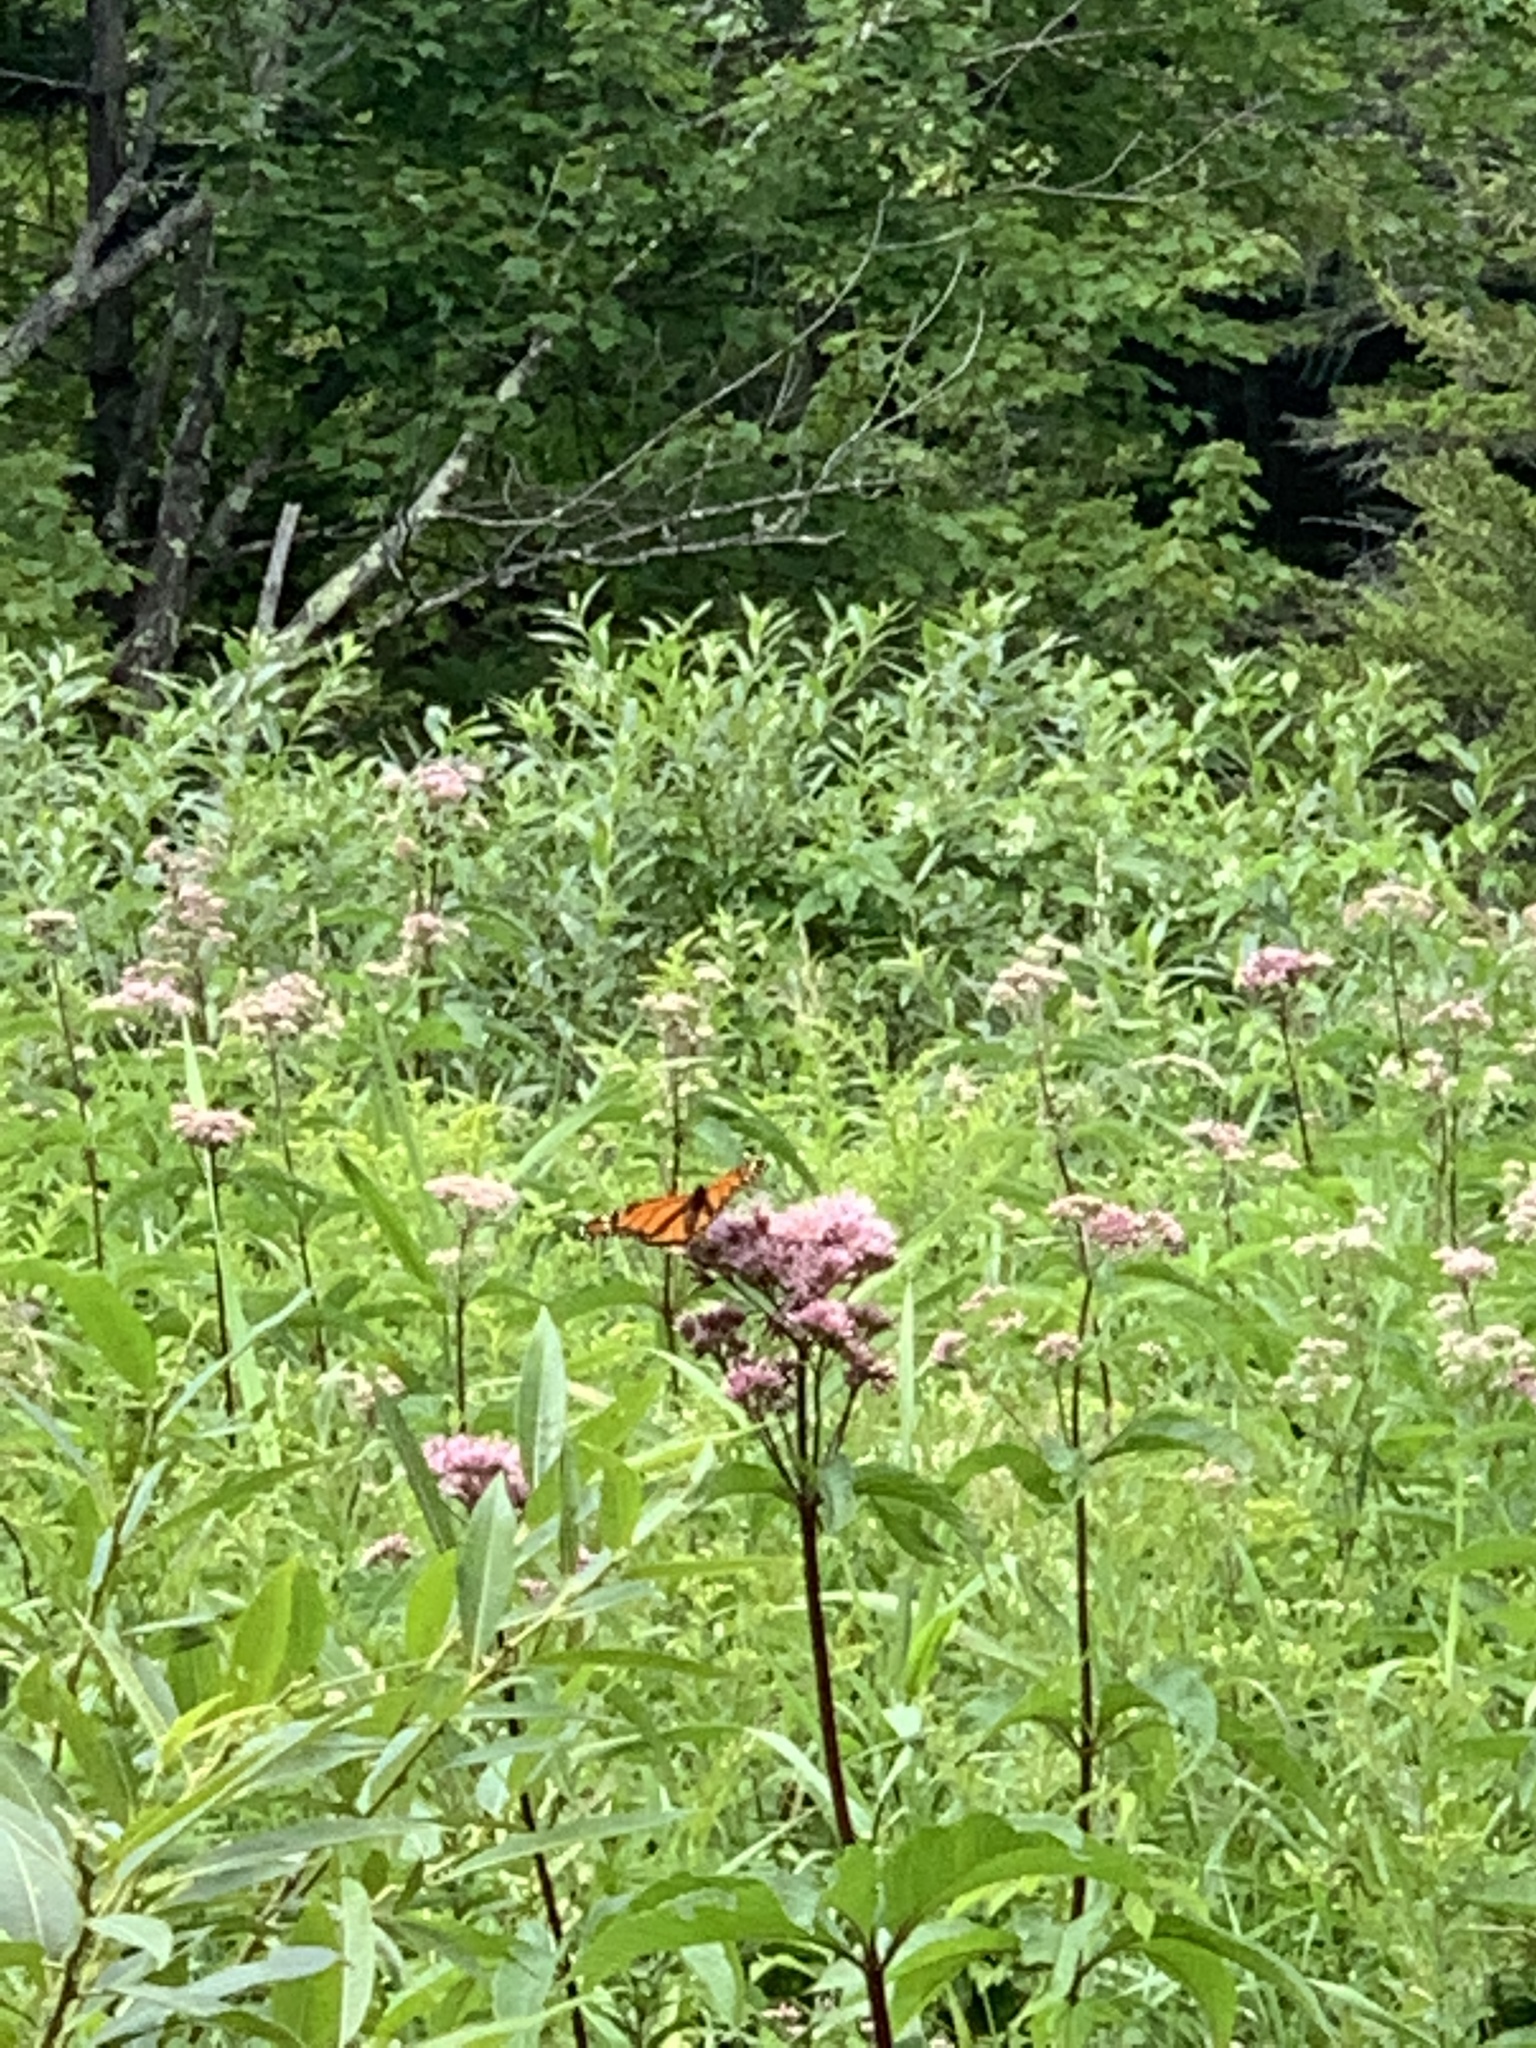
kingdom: Animalia
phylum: Arthropoda
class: Insecta
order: Lepidoptera
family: Nymphalidae
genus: Danaus
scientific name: Danaus plexippus
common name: Monarch
